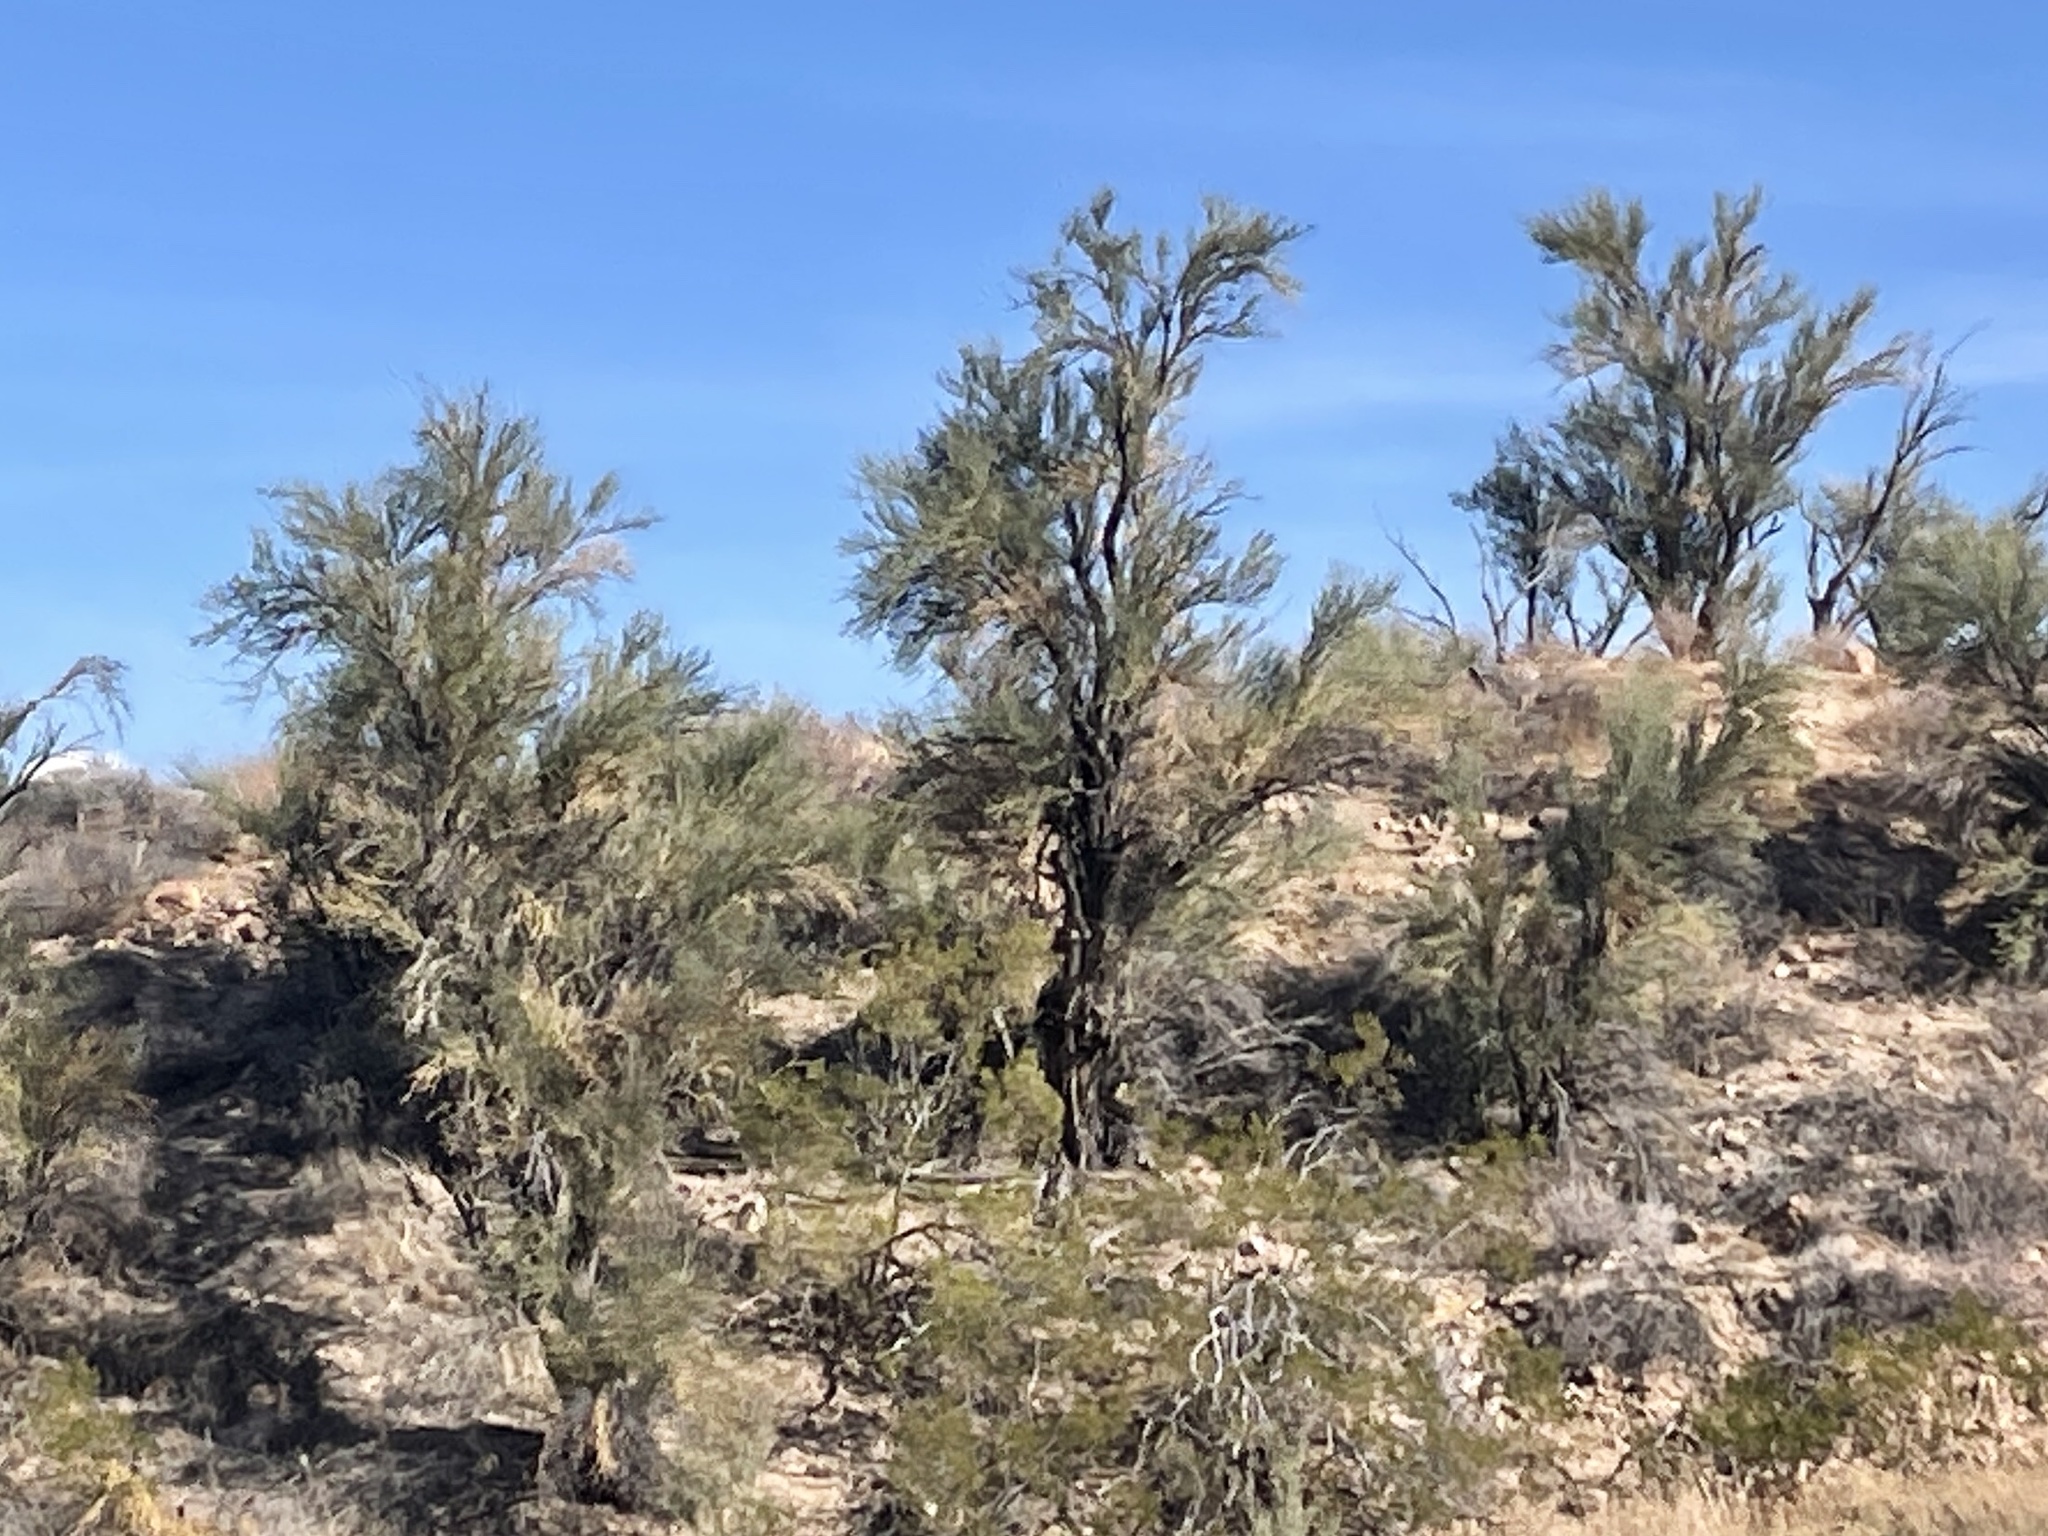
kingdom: Plantae
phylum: Tracheophyta
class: Magnoliopsida
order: Celastrales
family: Celastraceae
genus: Canotia
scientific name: Canotia holacantha
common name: Crucifixion thorns
